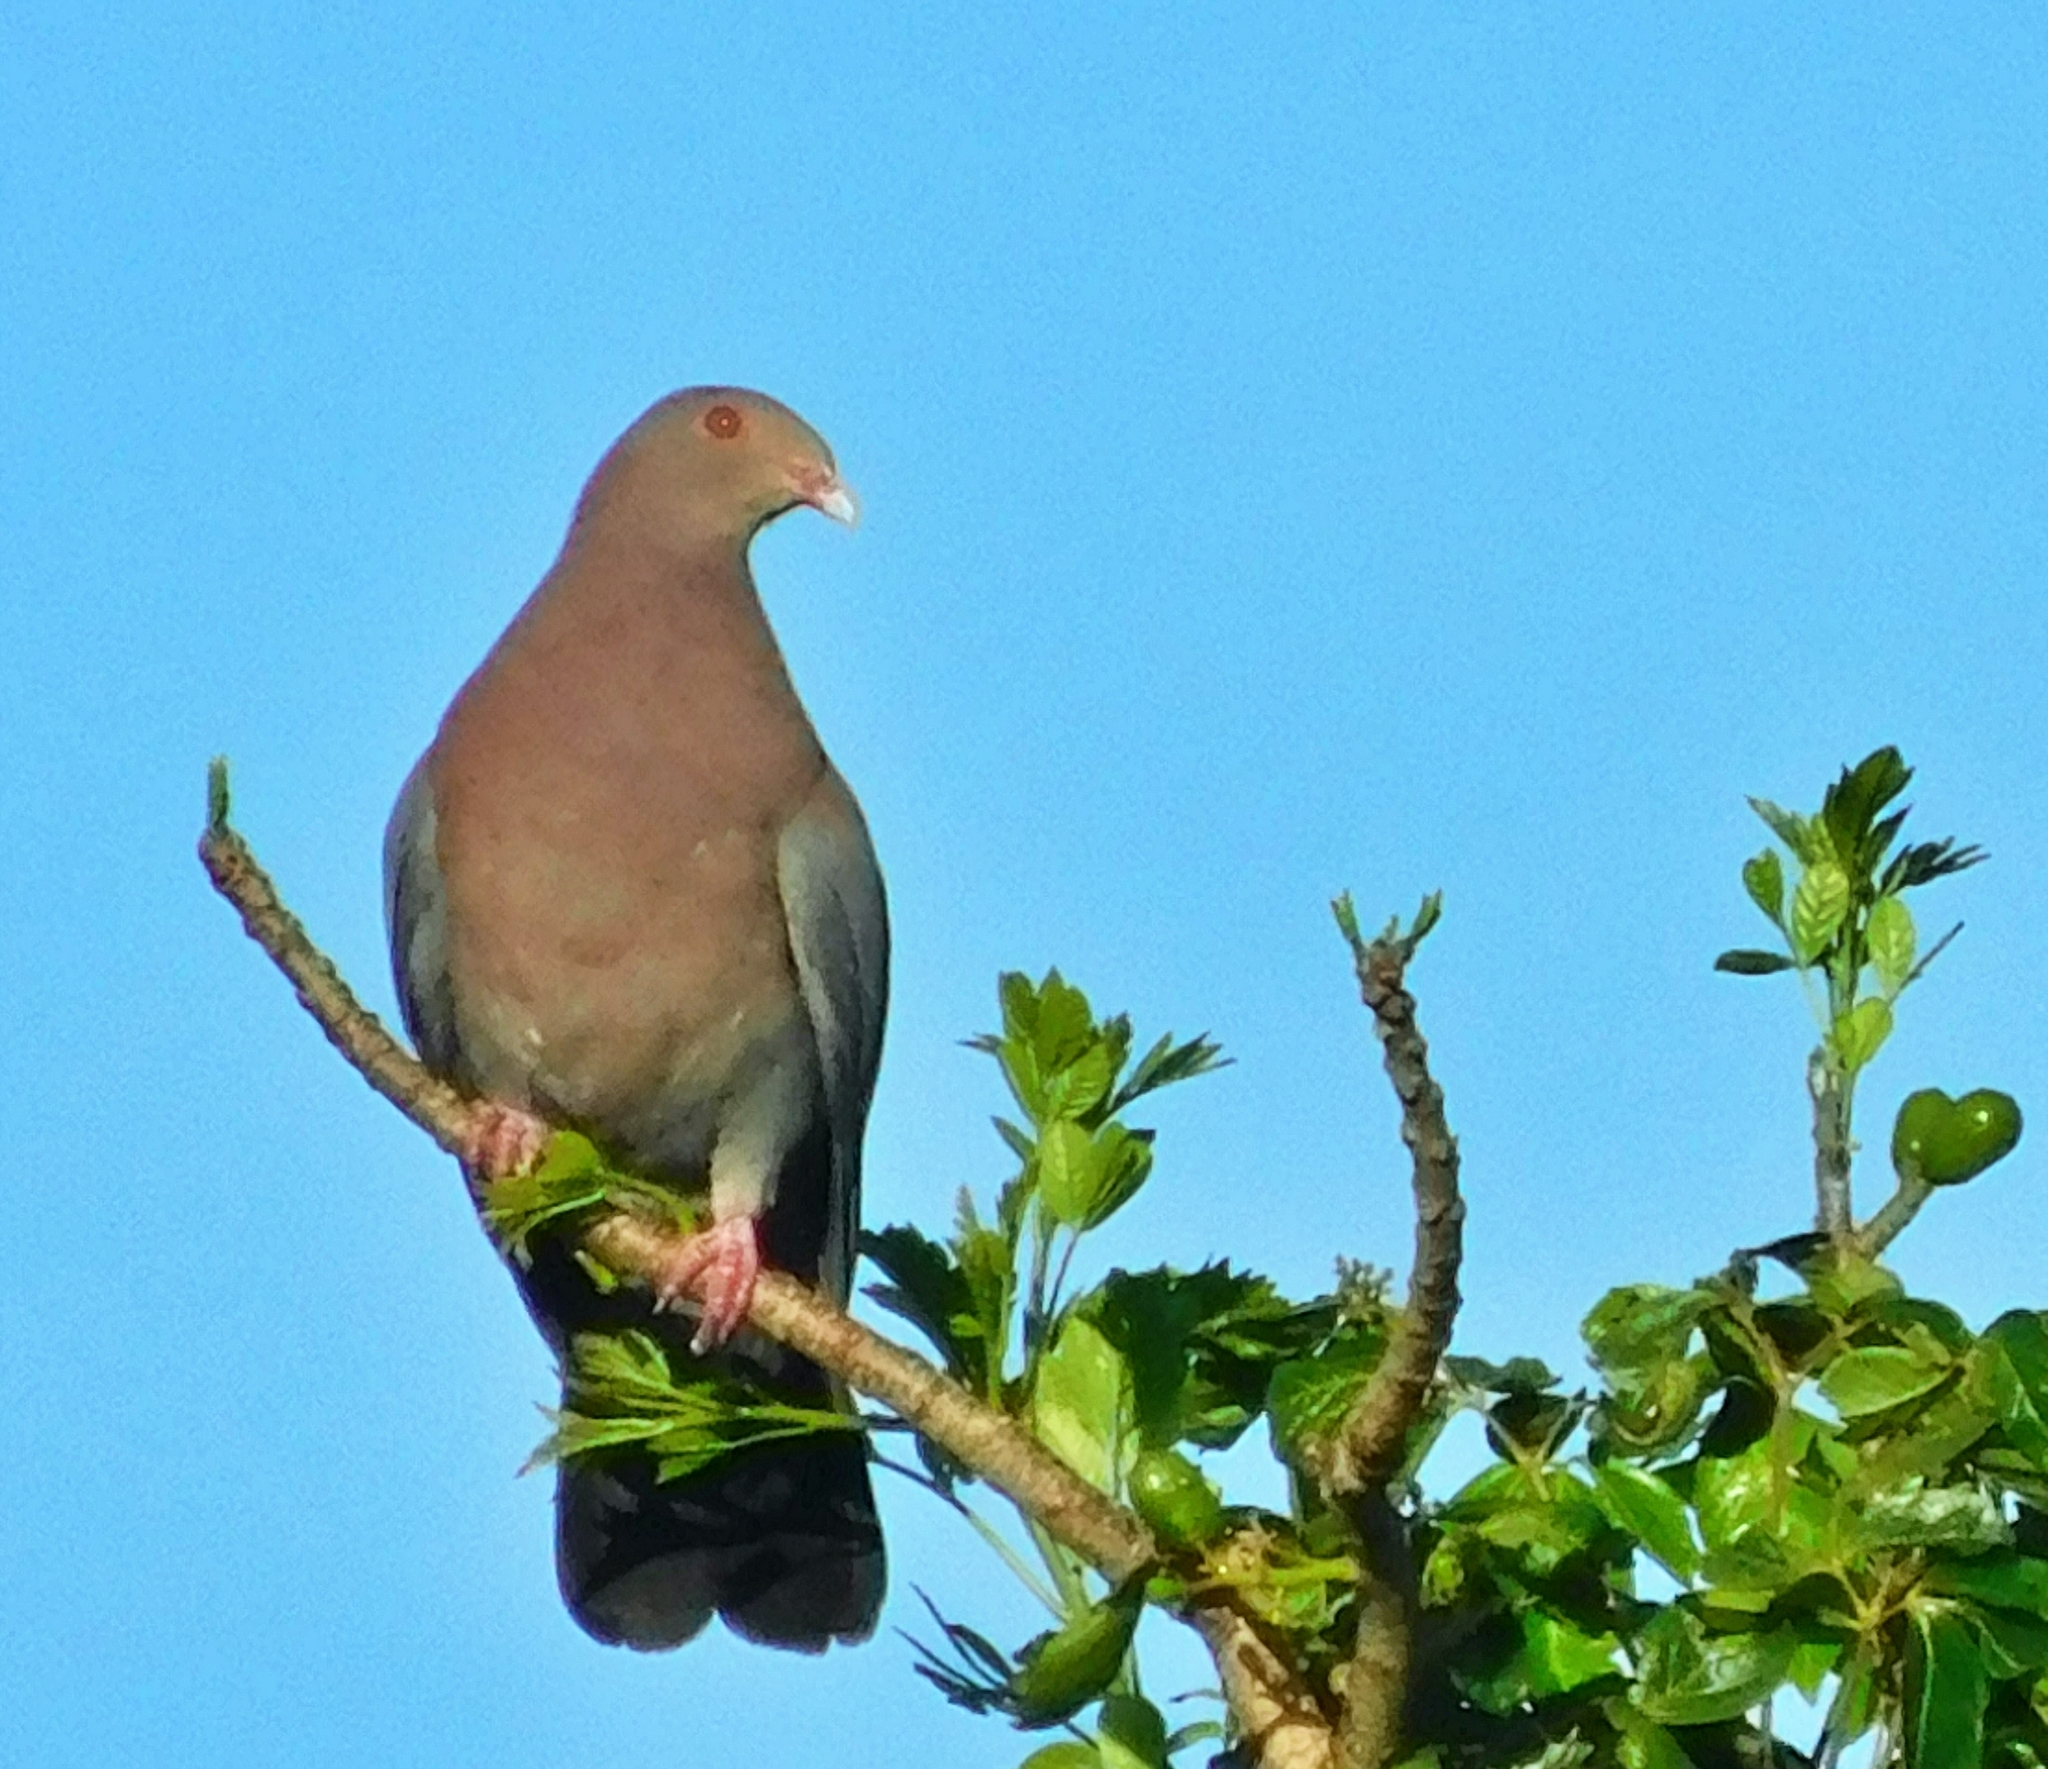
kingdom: Animalia
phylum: Chordata
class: Aves
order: Columbiformes
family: Columbidae
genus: Patagioenas
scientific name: Patagioenas flavirostris
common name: Red-billed pigeon
